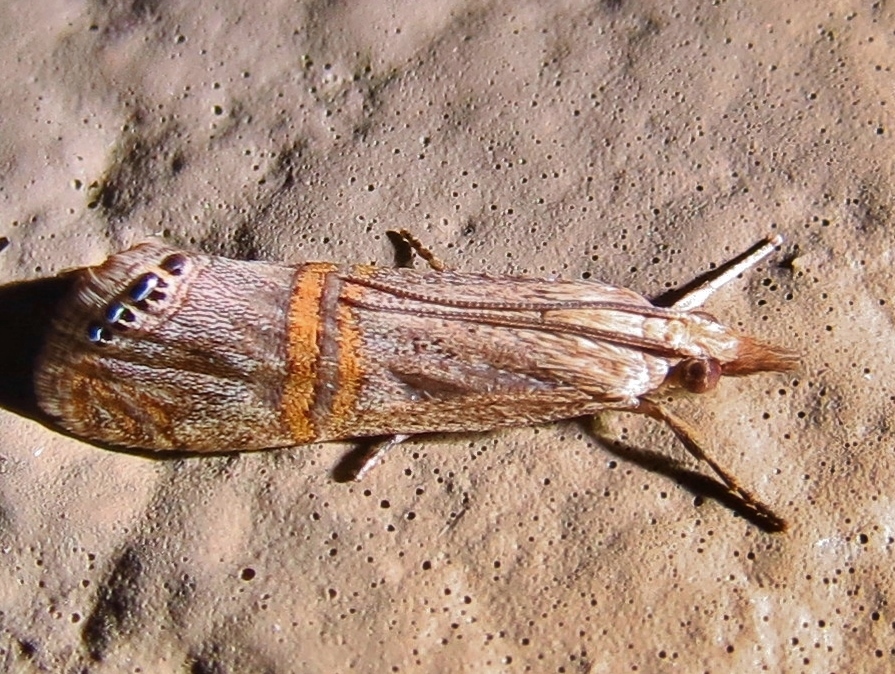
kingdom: Animalia
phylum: Arthropoda
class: Insecta
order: Lepidoptera
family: Crambidae
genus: Euchromius
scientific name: Euchromius ocellea
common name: Necklace veneer moth
